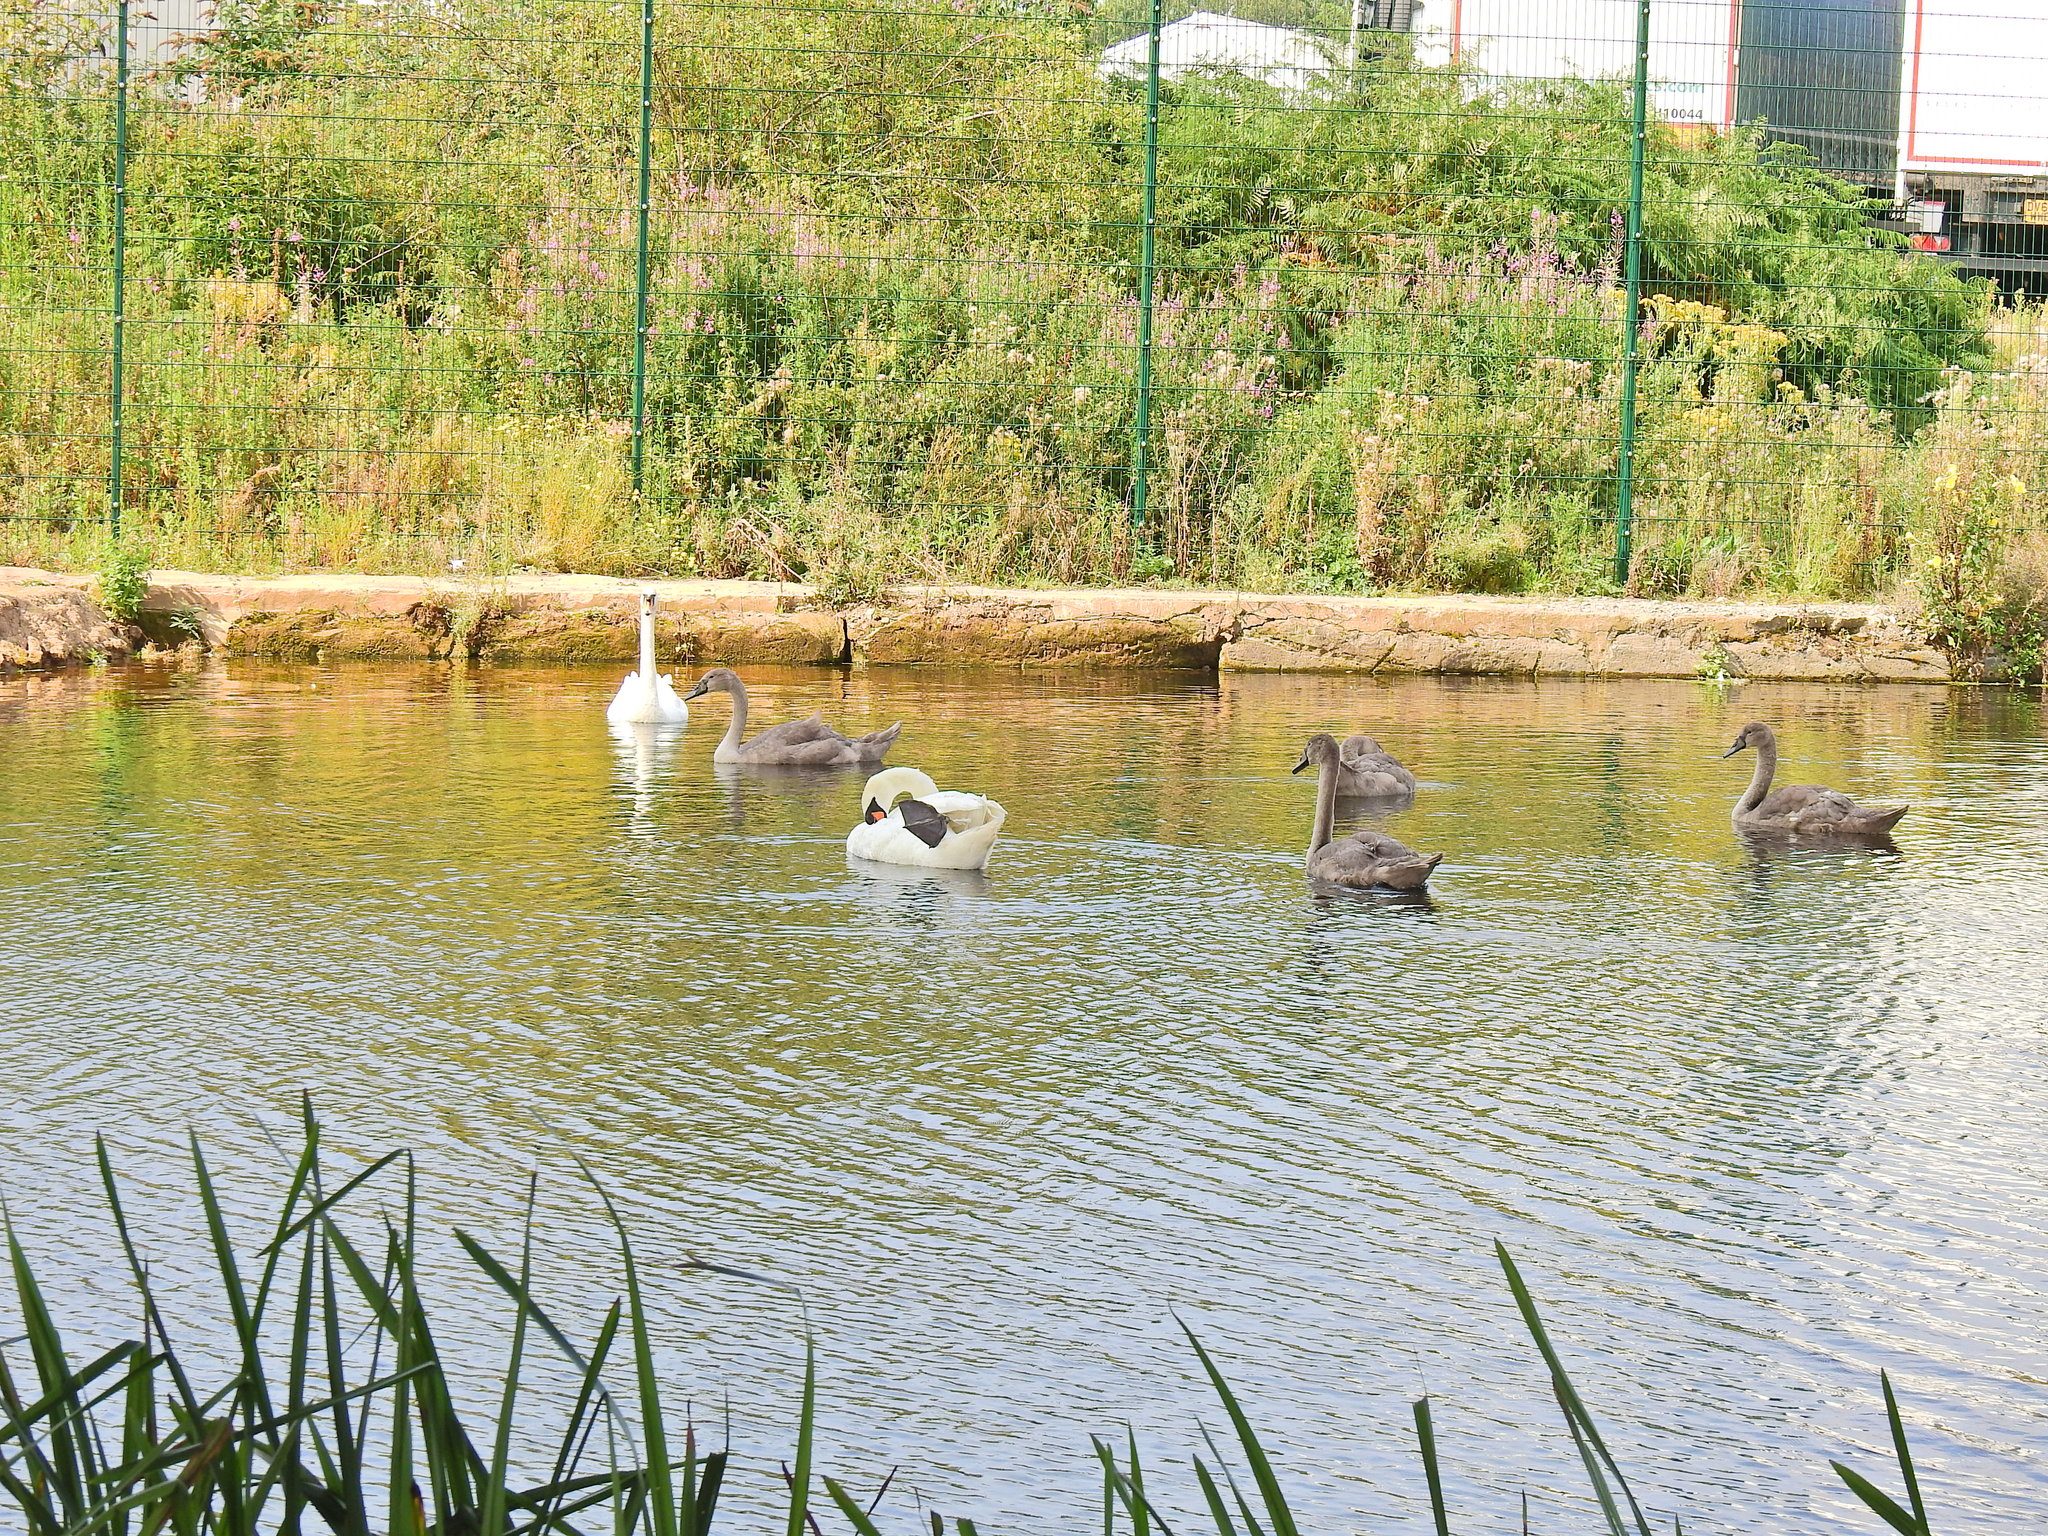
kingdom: Animalia
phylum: Chordata
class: Aves
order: Anseriformes
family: Anatidae
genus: Cygnus
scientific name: Cygnus olor
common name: Mute swan
